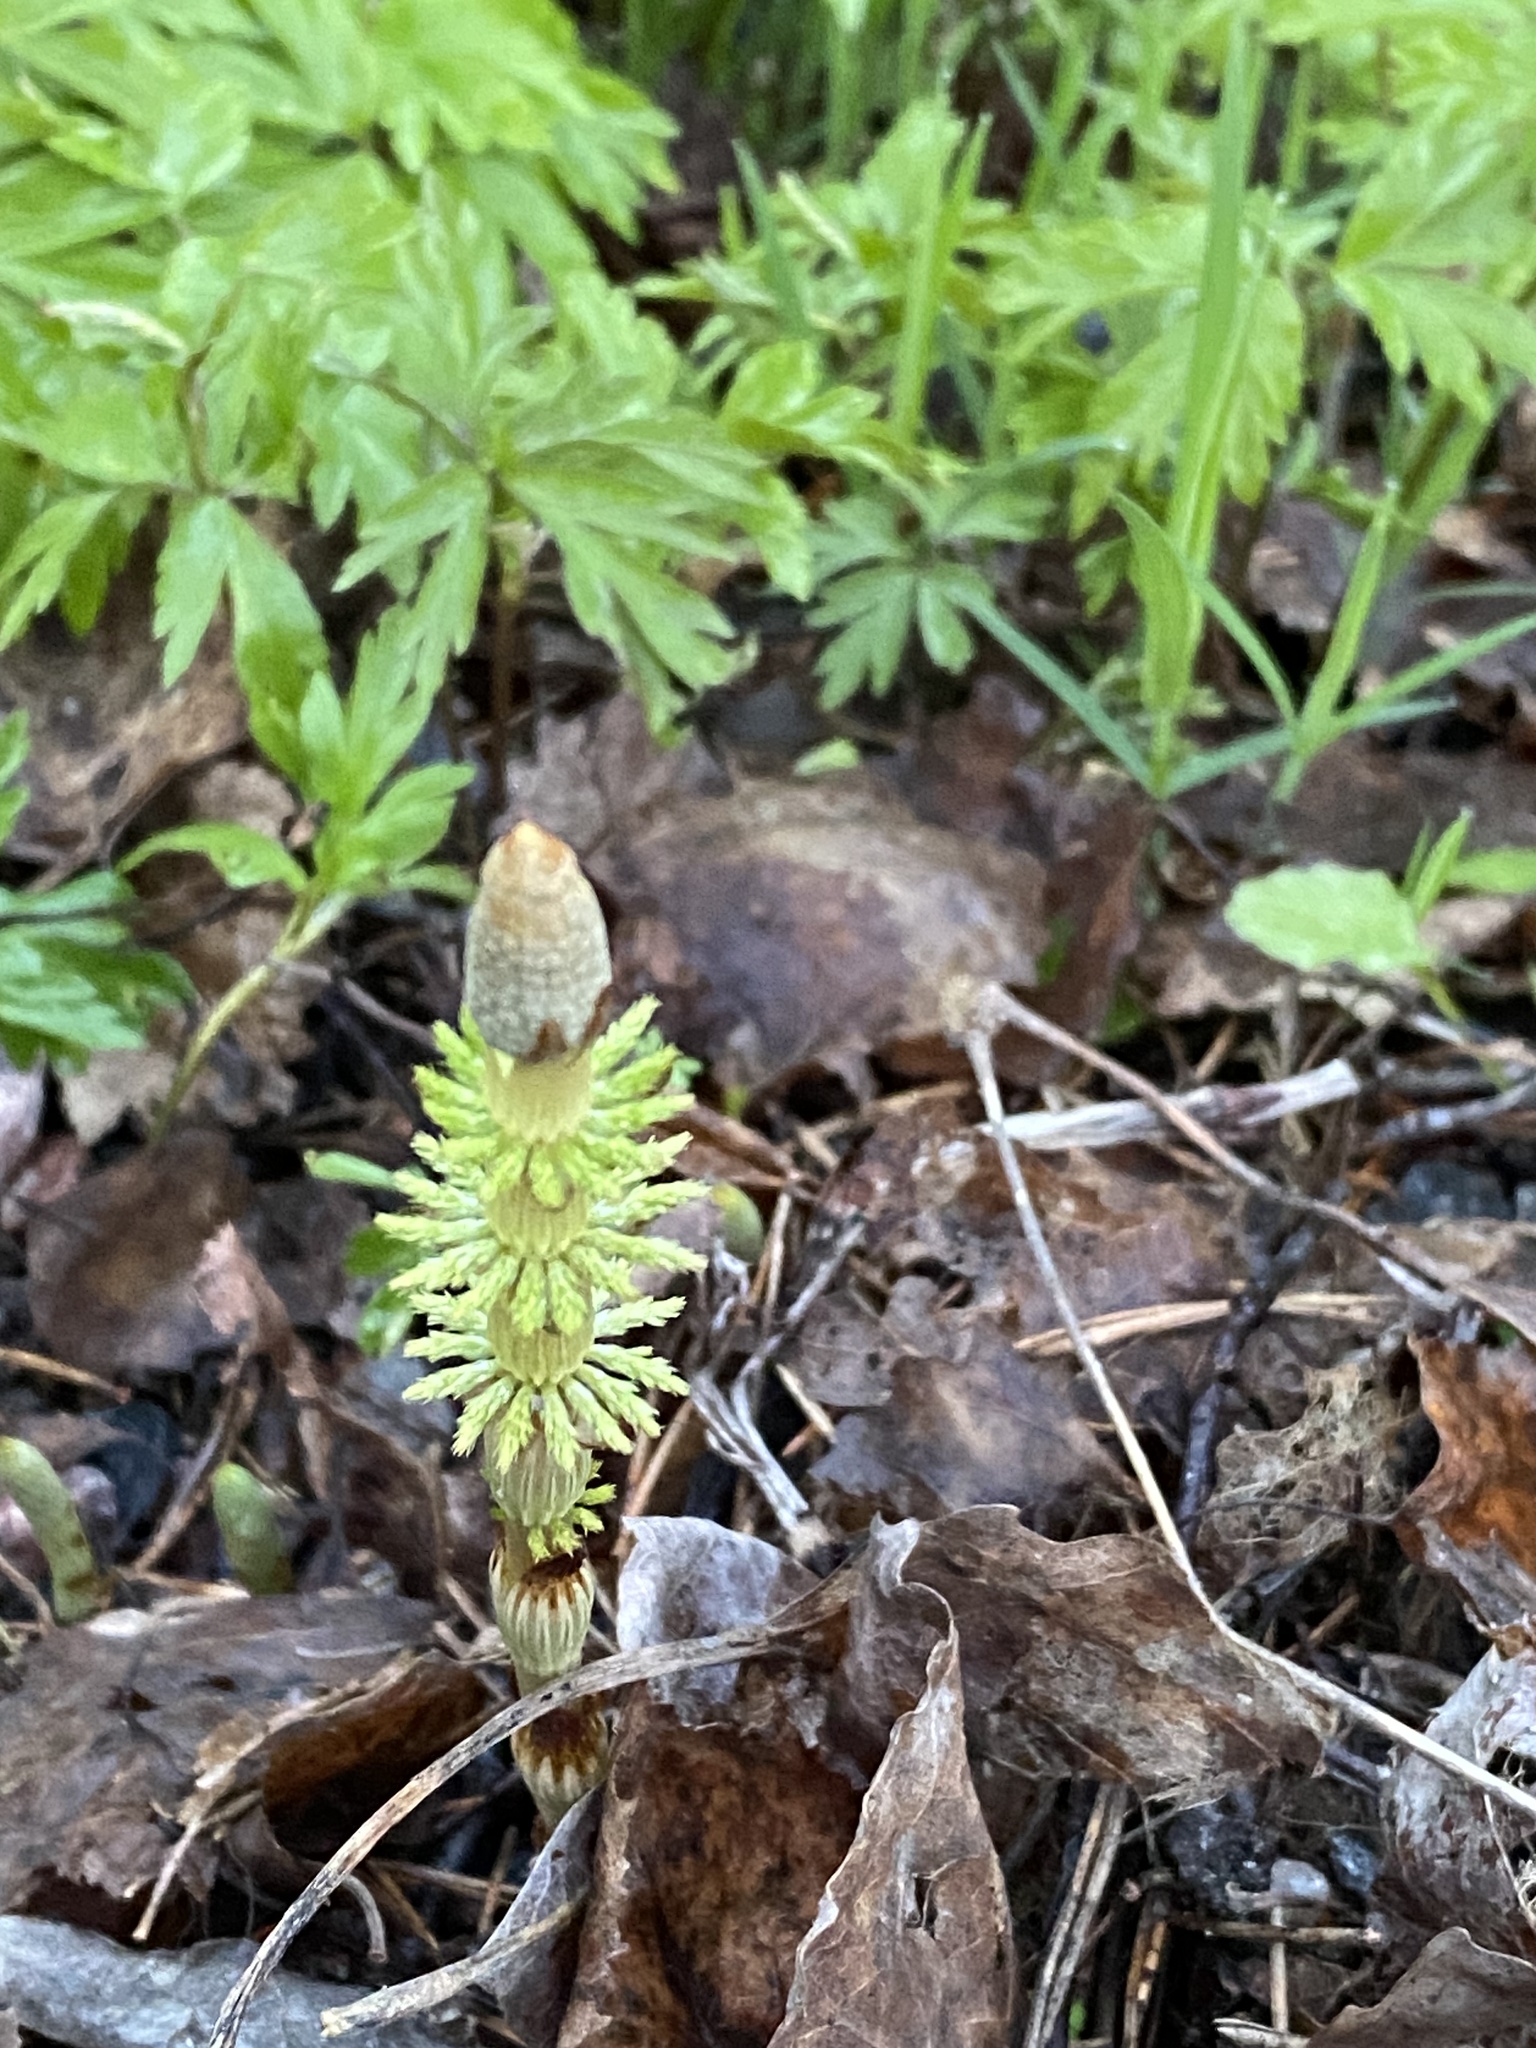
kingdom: Plantae
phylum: Tracheophyta
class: Polypodiopsida
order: Equisetales
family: Equisetaceae
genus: Equisetum
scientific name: Equisetum sylvaticum
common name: Wood horsetail
